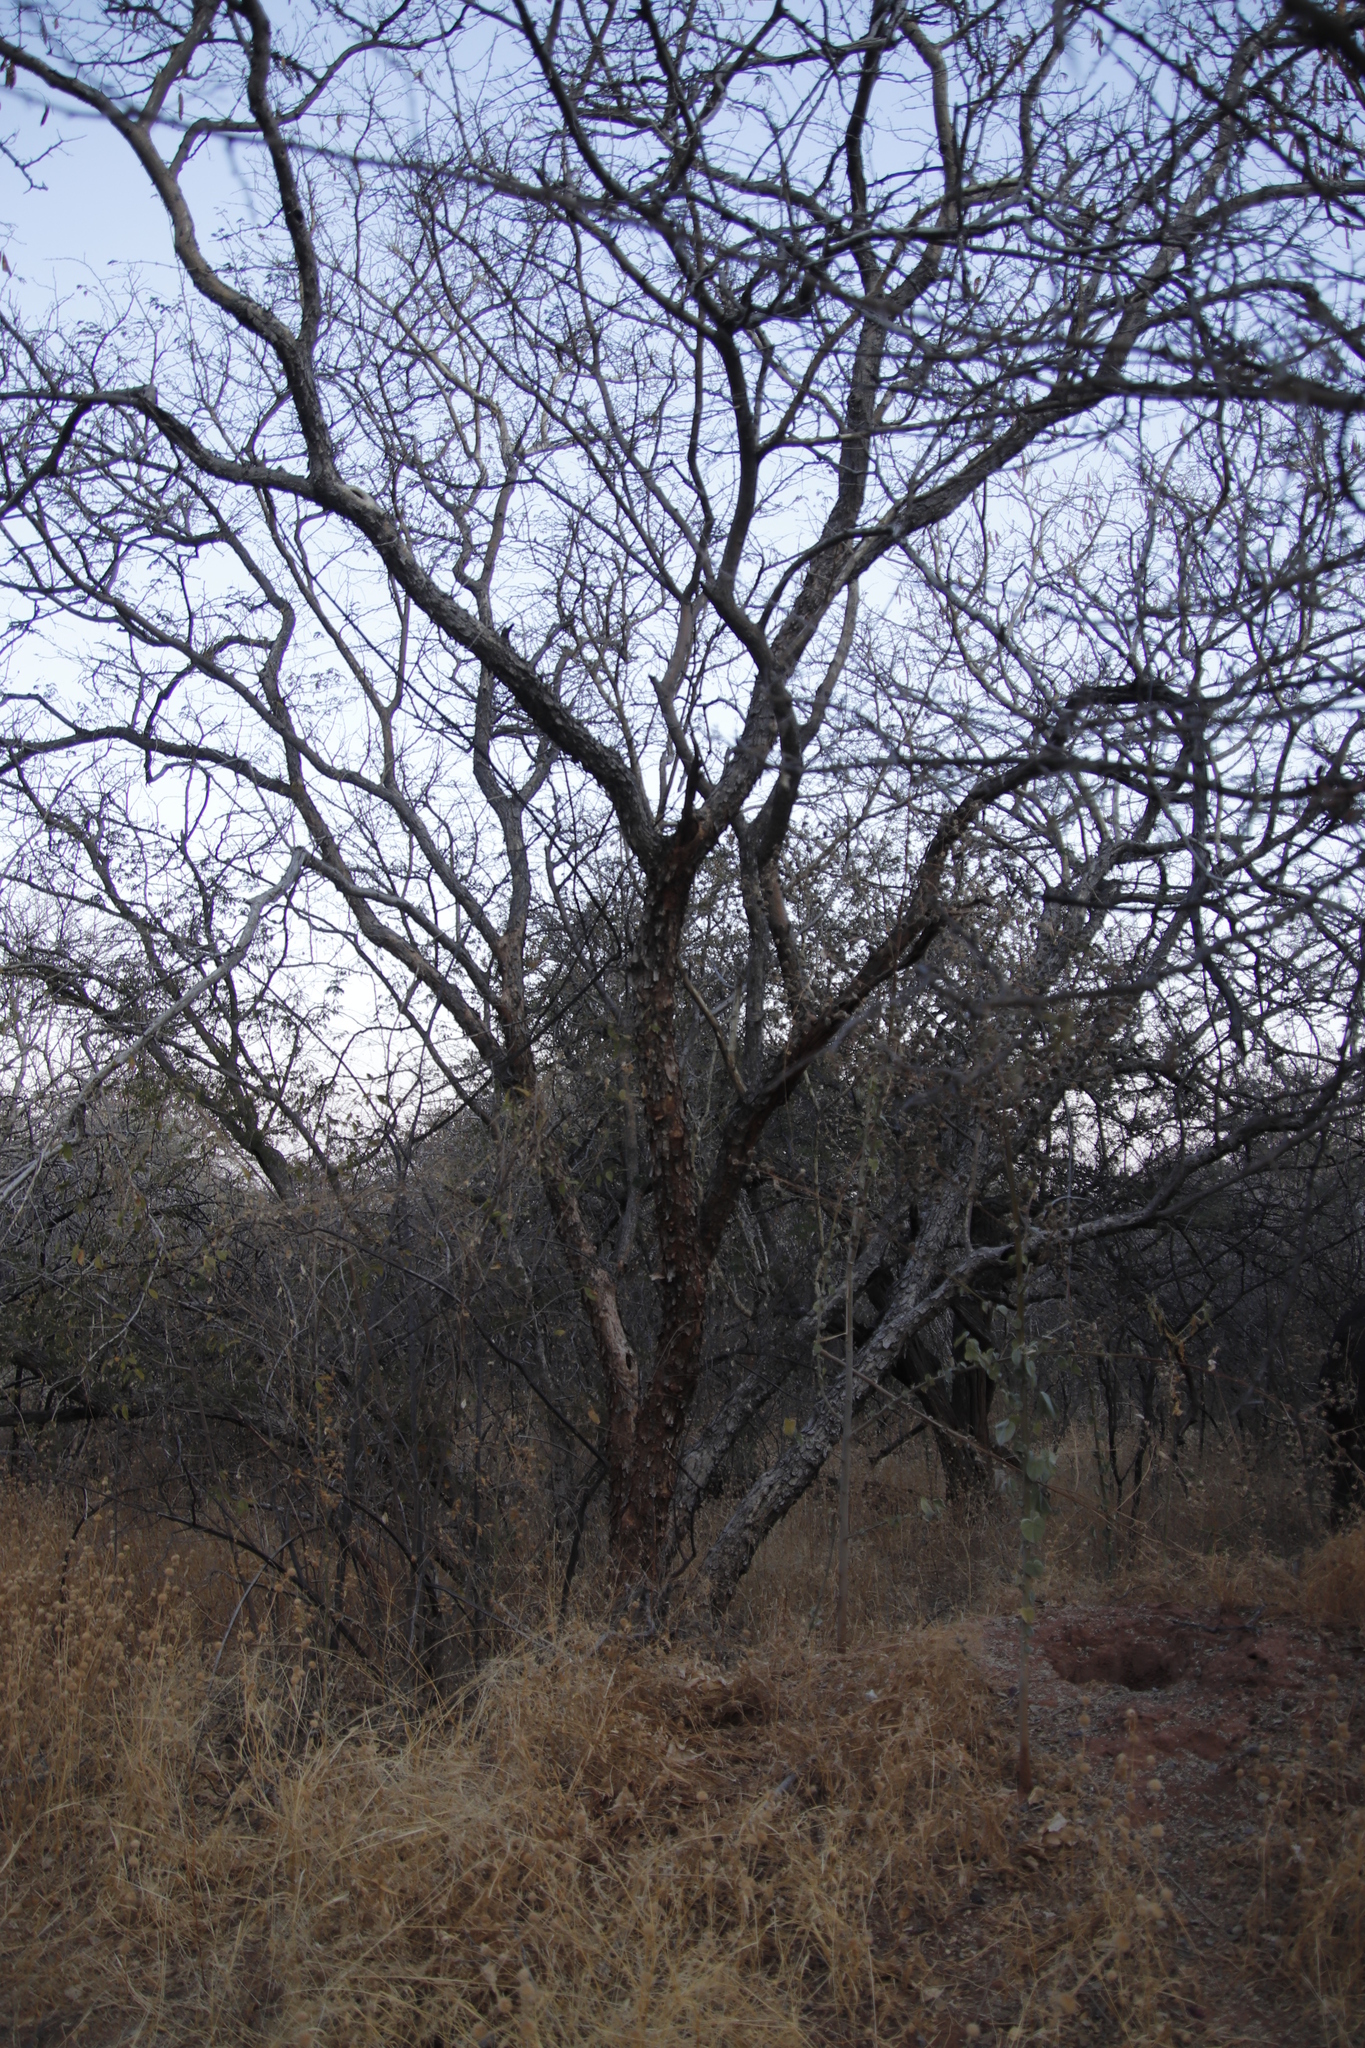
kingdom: Plantae
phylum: Tracheophyta
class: Magnoliopsida
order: Fabales
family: Fabaceae
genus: Senegalia
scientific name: Senegalia erubescens
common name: Bluethorn
